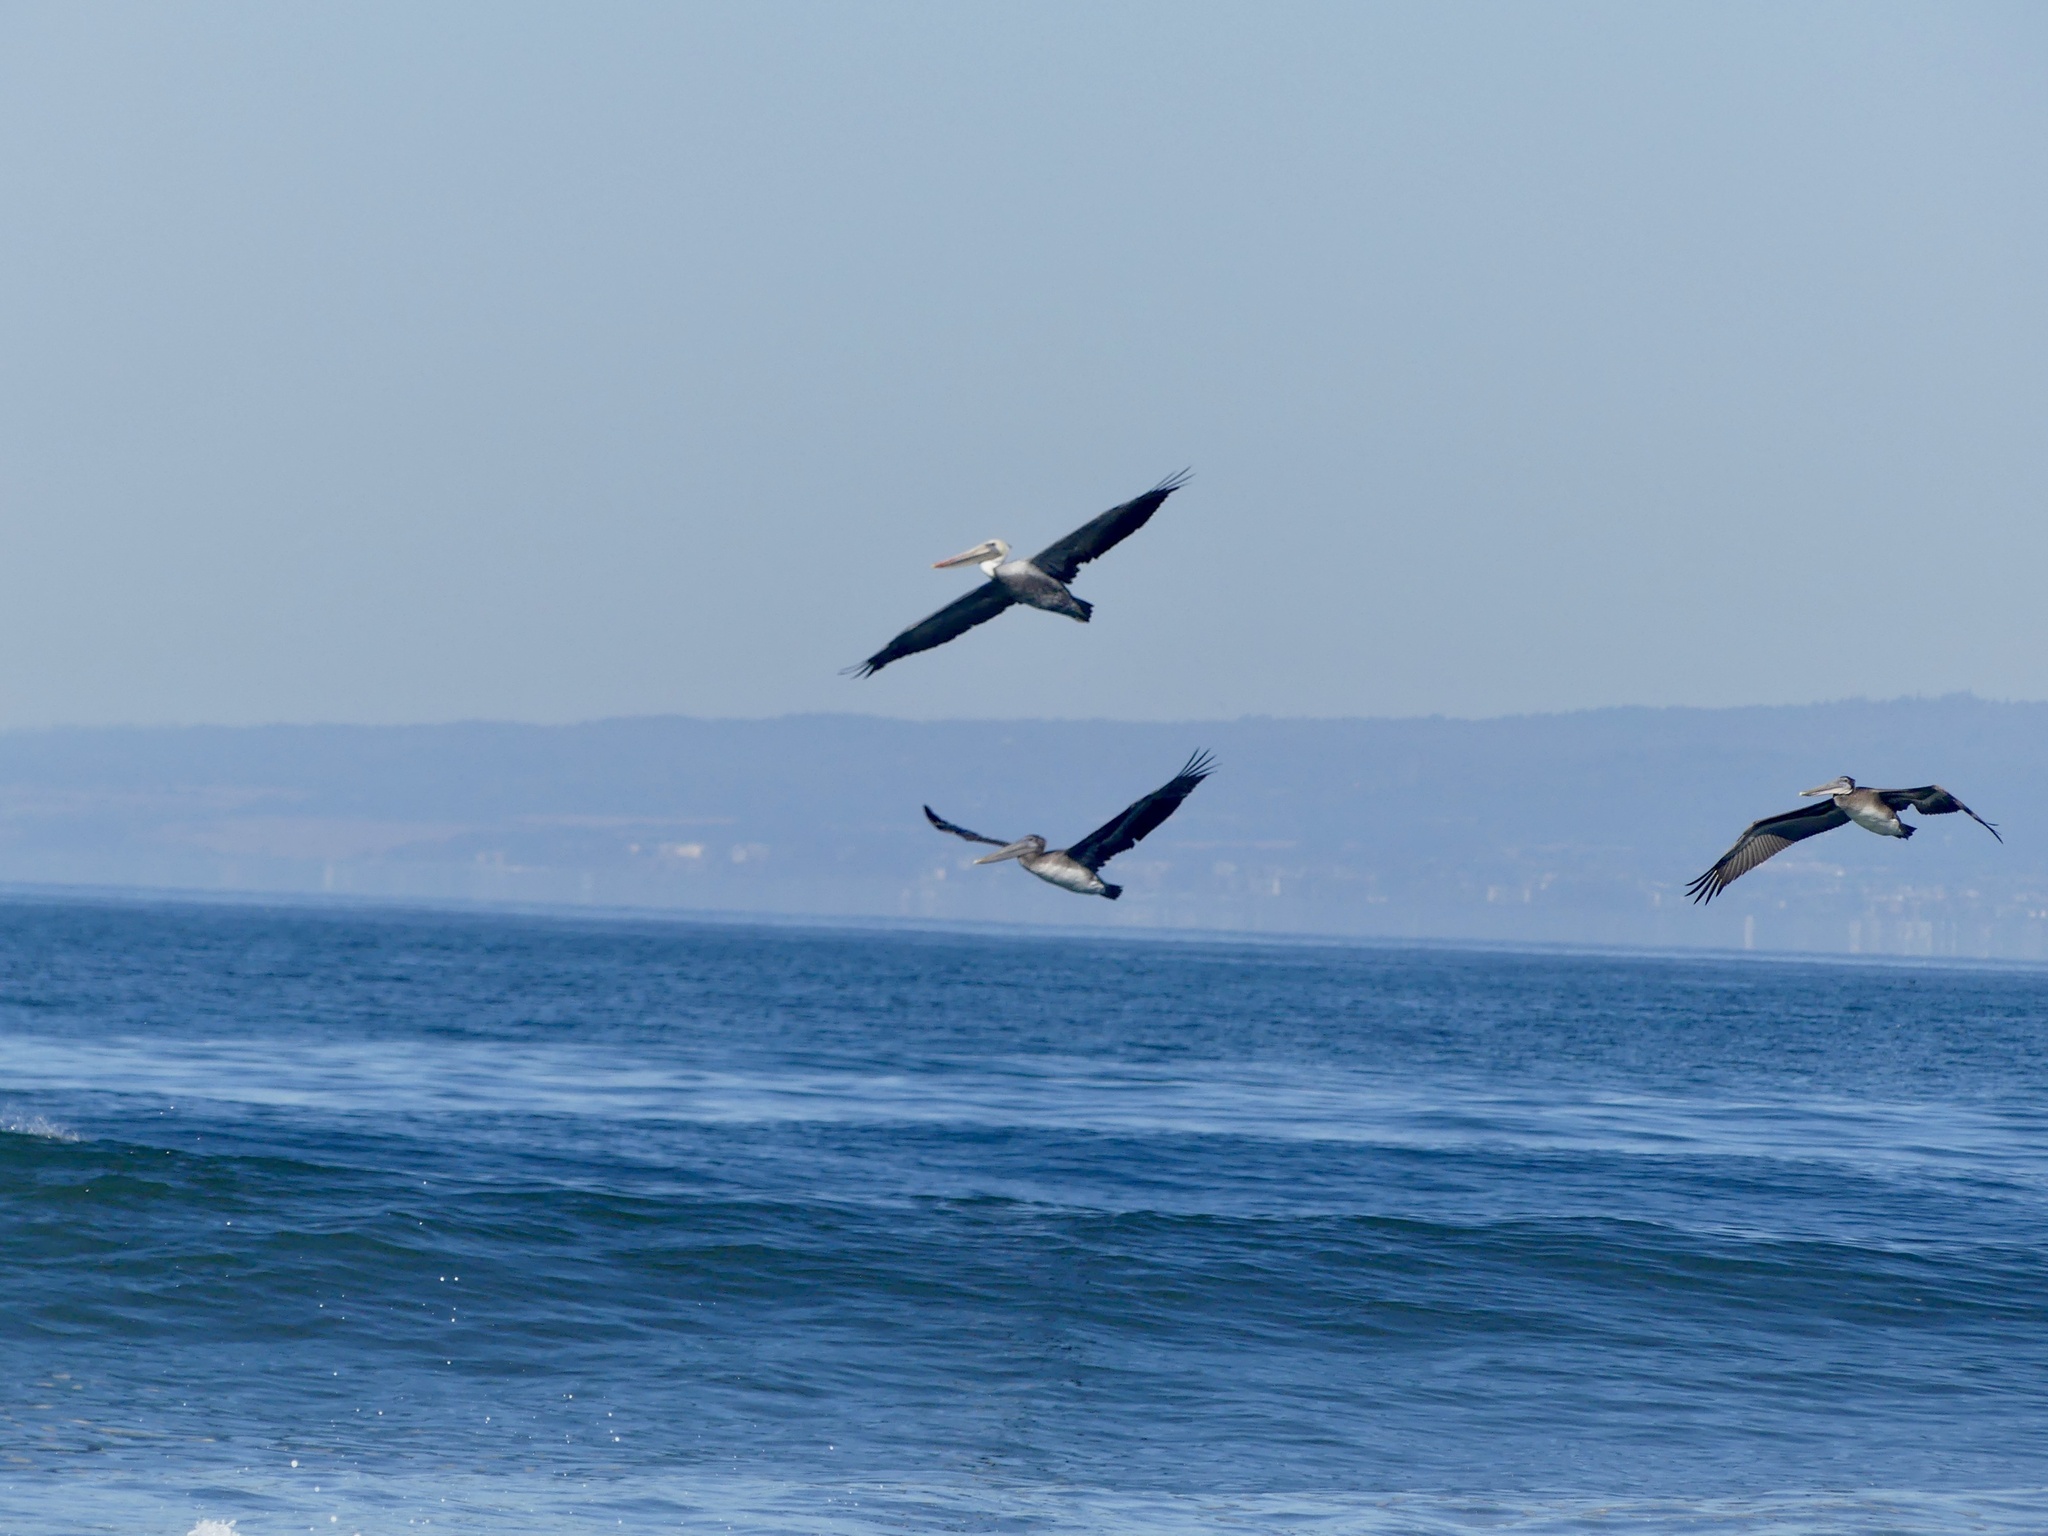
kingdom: Animalia
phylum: Chordata
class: Aves
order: Pelecaniformes
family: Pelecanidae
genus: Pelecanus
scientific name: Pelecanus occidentalis
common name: Brown pelican
